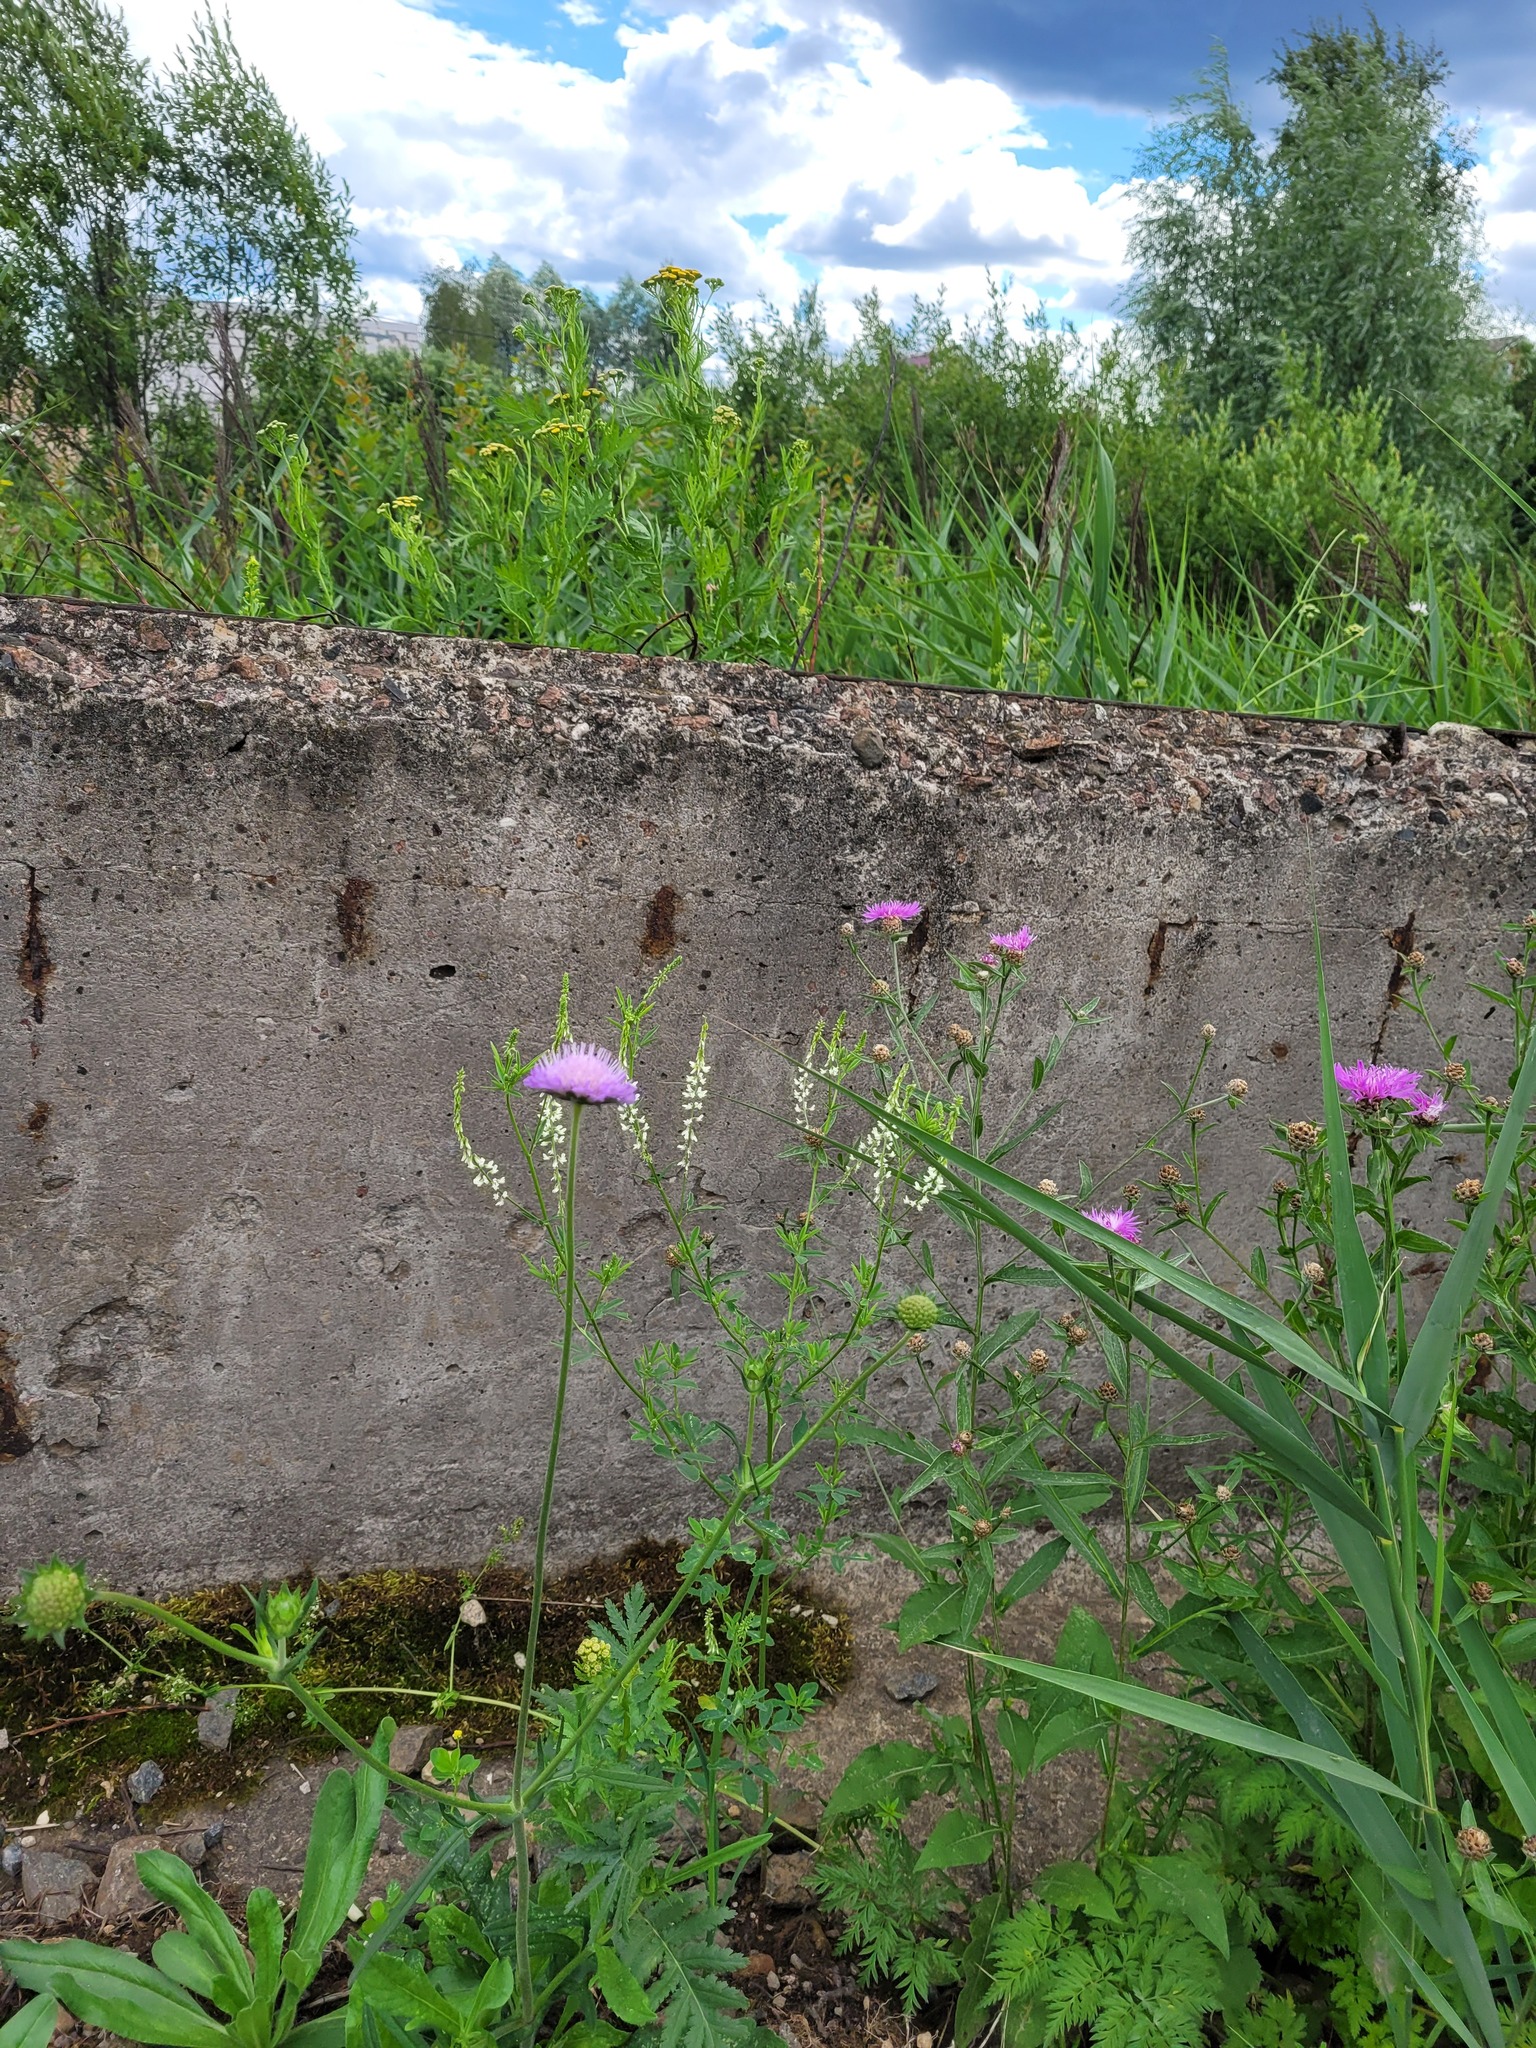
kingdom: Plantae
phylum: Tracheophyta
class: Magnoliopsida
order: Dipsacales
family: Caprifoliaceae
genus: Knautia
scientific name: Knautia arvensis
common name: Field scabiosa
